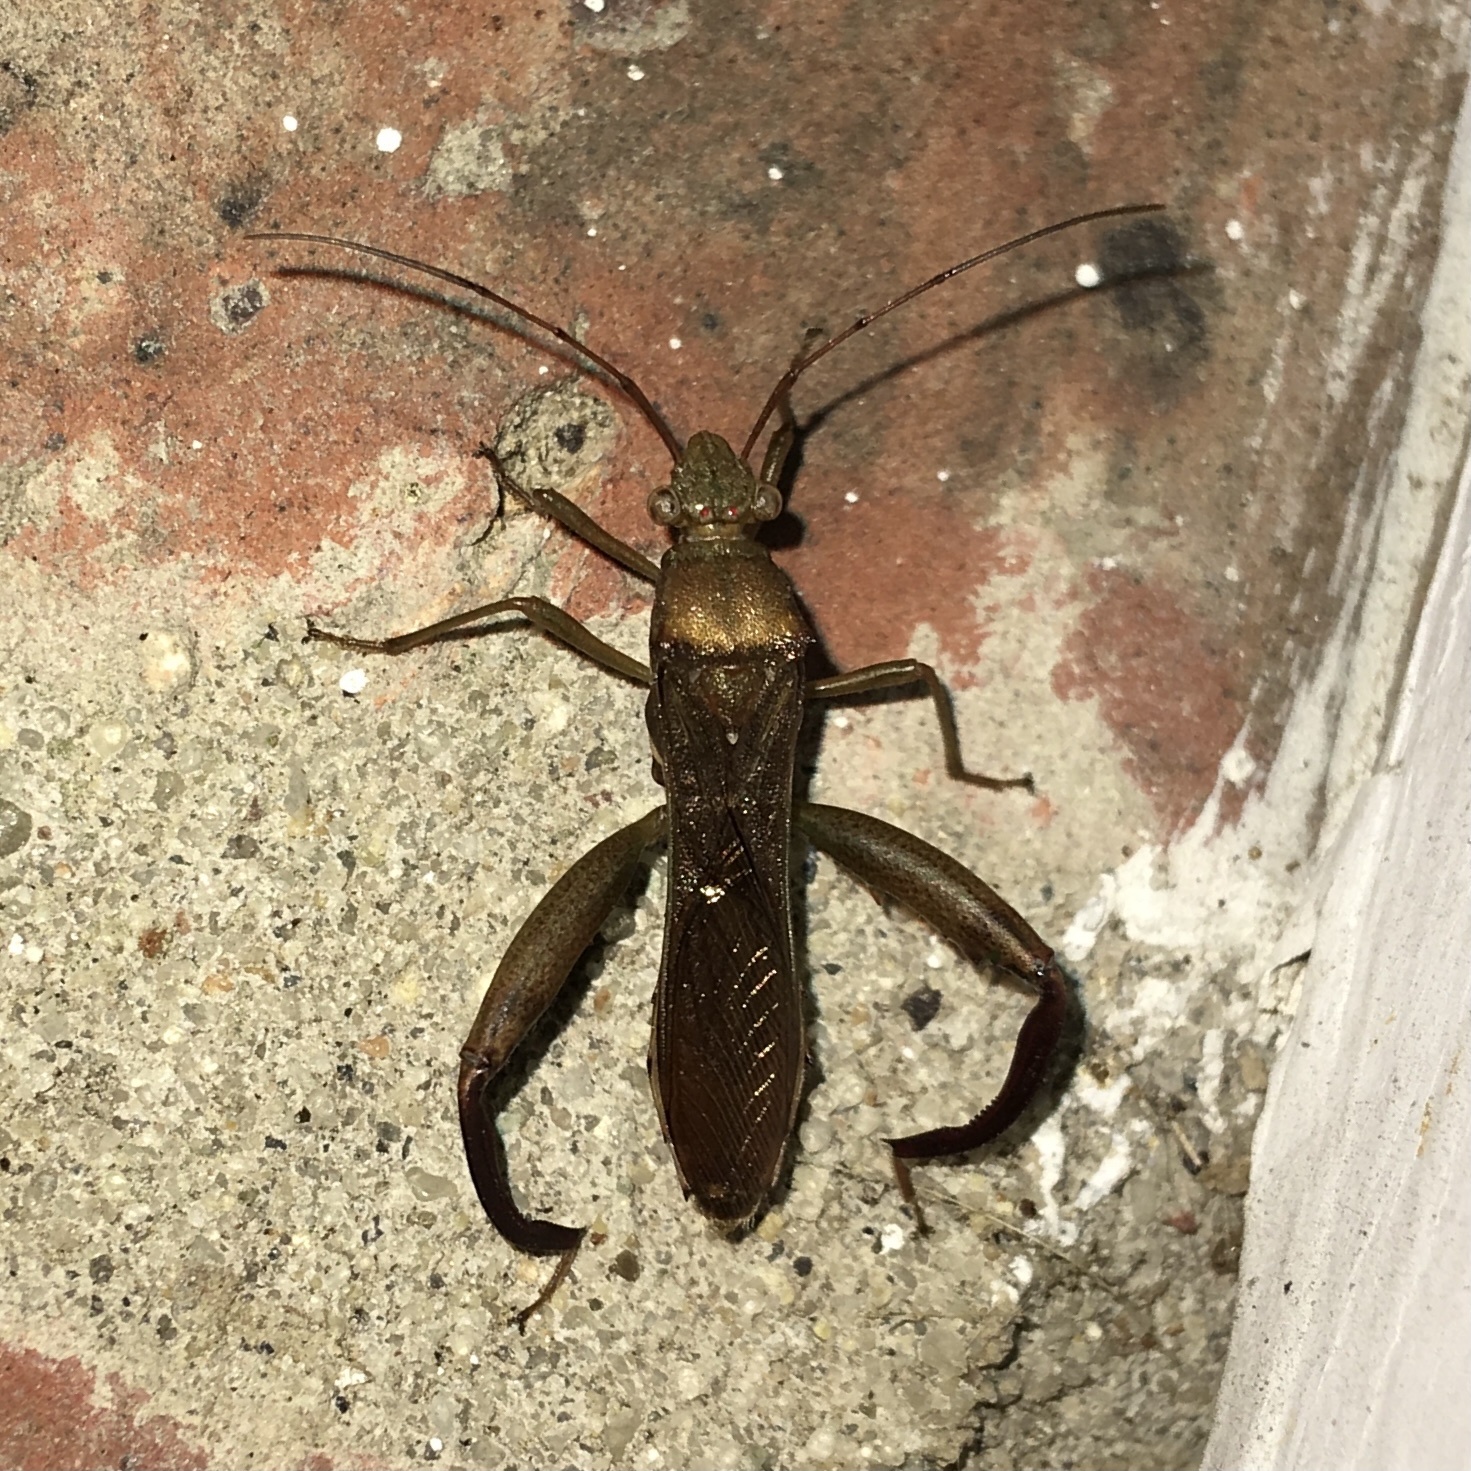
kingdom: Animalia
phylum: Arthropoda
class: Insecta
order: Hemiptera
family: Alydidae
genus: Hyalymenus
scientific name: Hyalymenus tarsatus
